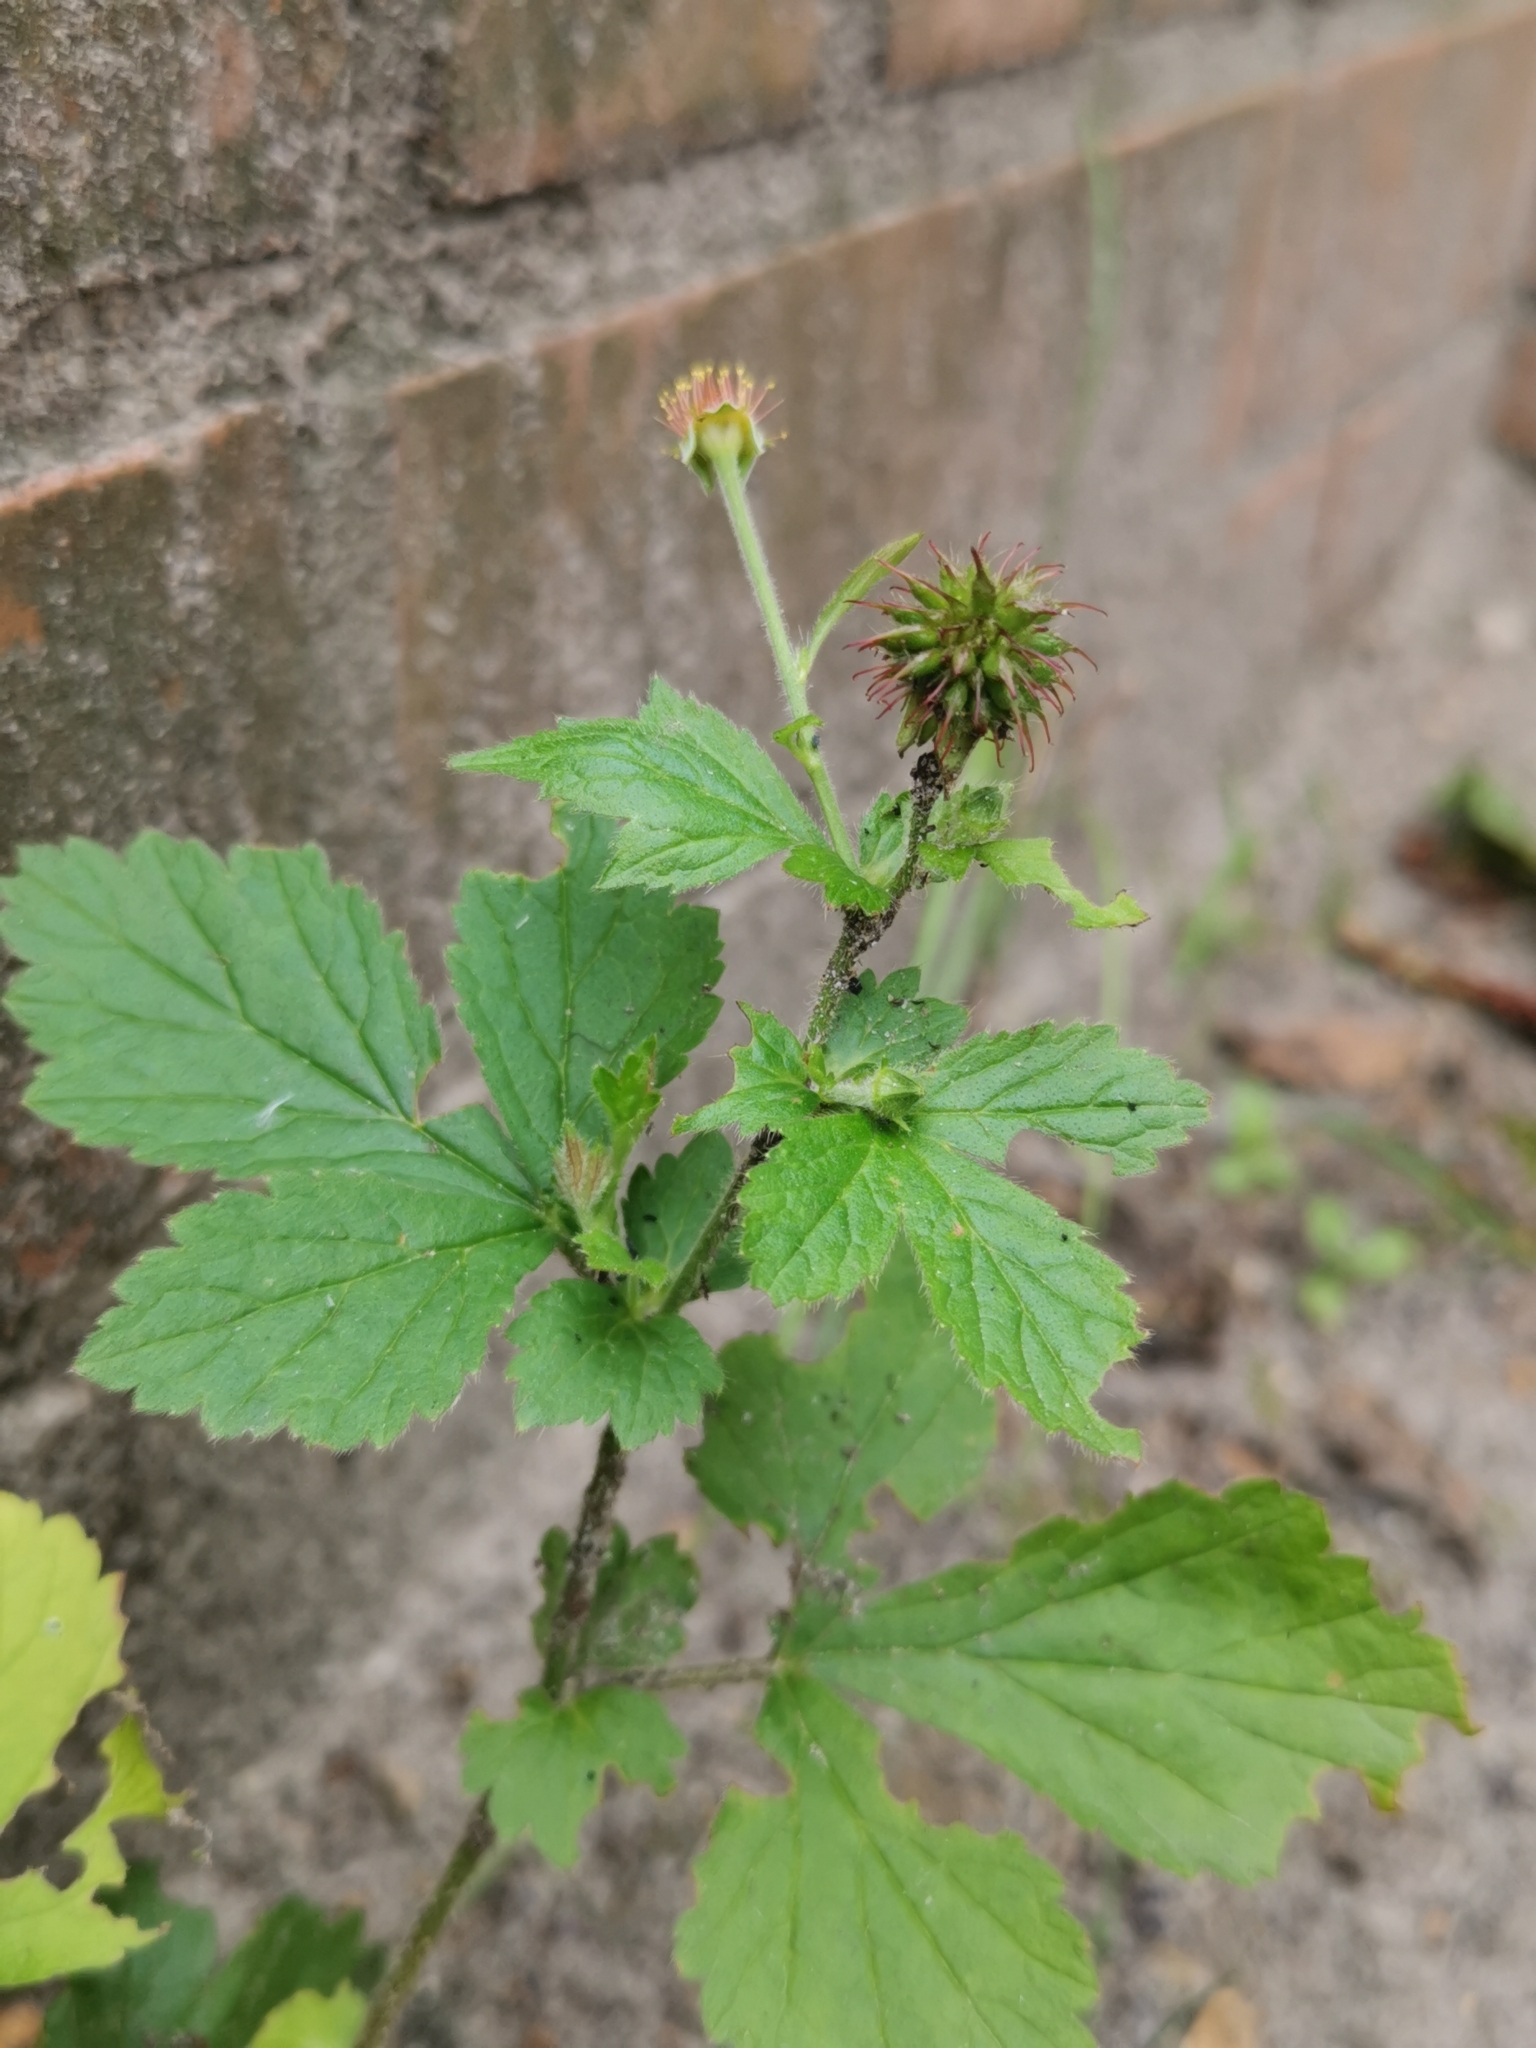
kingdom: Plantae
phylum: Tracheophyta
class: Magnoliopsida
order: Rosales
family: Rosaceae
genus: Geum
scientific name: Geum urbanum
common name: Wood avens
